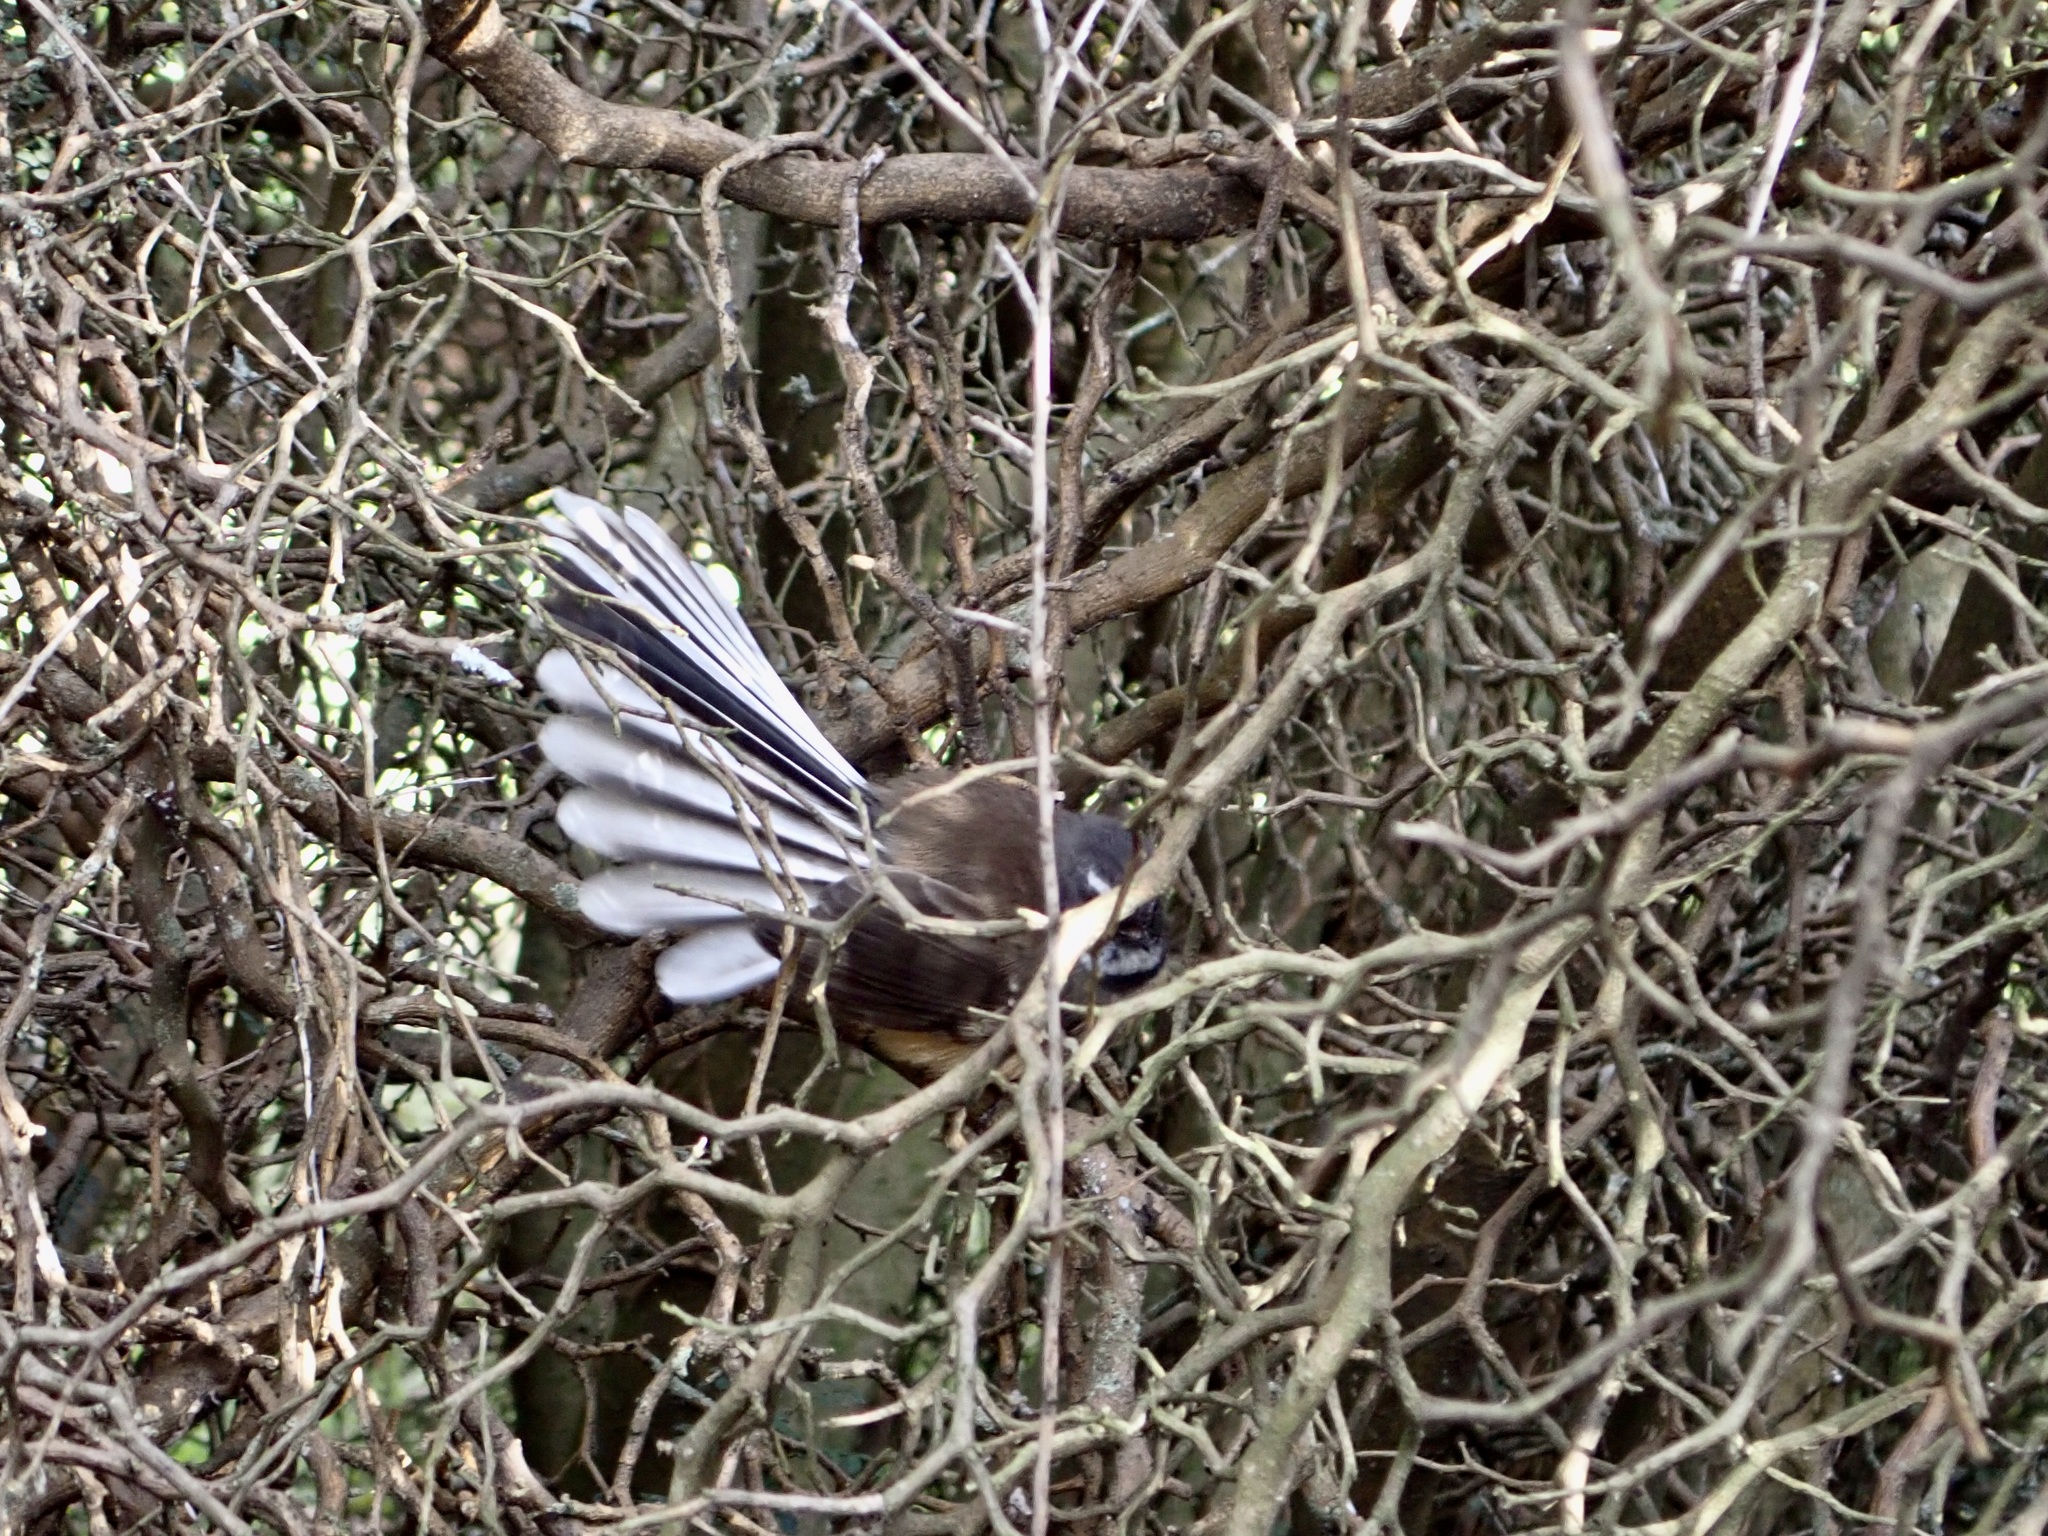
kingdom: Animalia
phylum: Chordata
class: Aves
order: Passeriformes
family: Rhipiduridae
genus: Rhipidura
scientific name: Rhipidura fuliginosa
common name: New zealand fantail
